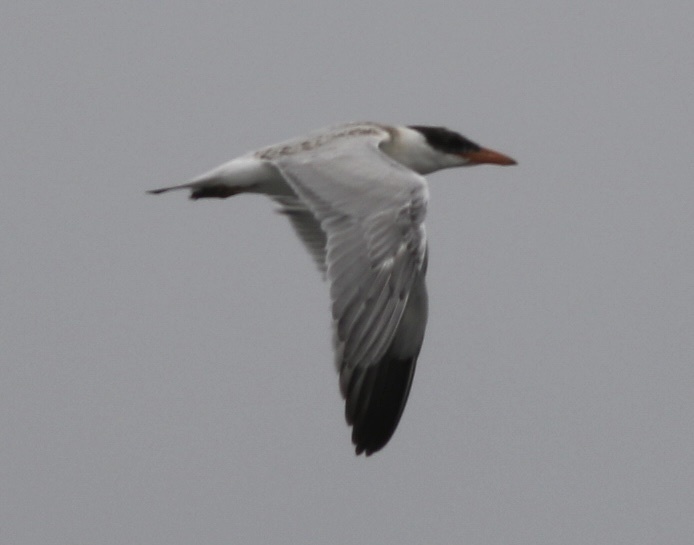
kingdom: Animalia
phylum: Chordata
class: Aves
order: Charadriiformes
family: Laridae
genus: Hydroprogne
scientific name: Hydroprogne caspia
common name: Caspian tern
